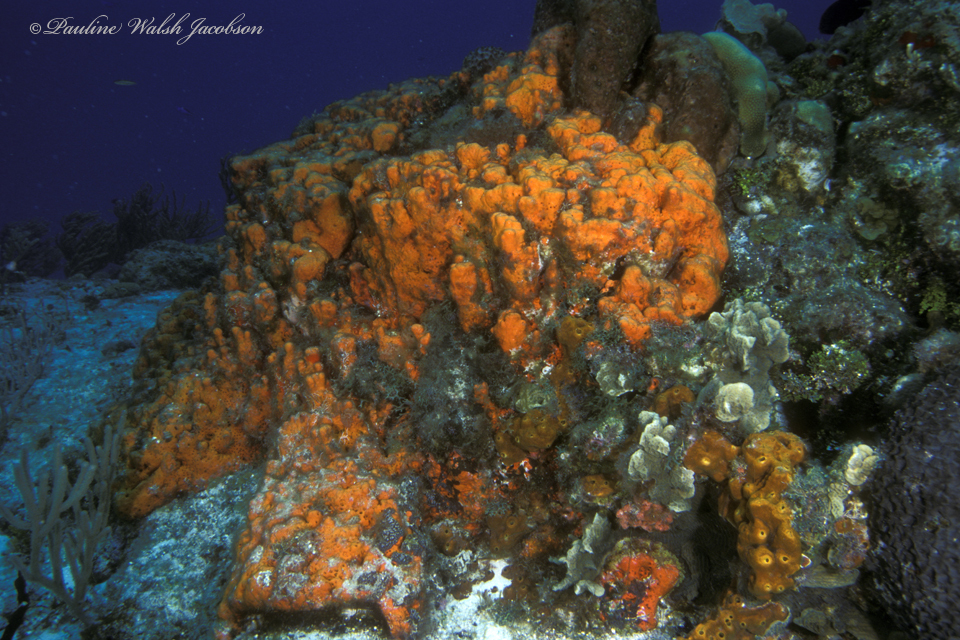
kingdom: Animalia
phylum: Porifera
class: Demospongiae
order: Agelasida
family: Agelasidae
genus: Agelas
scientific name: Agelas clathrodes
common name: Orange elephant ear sponge
